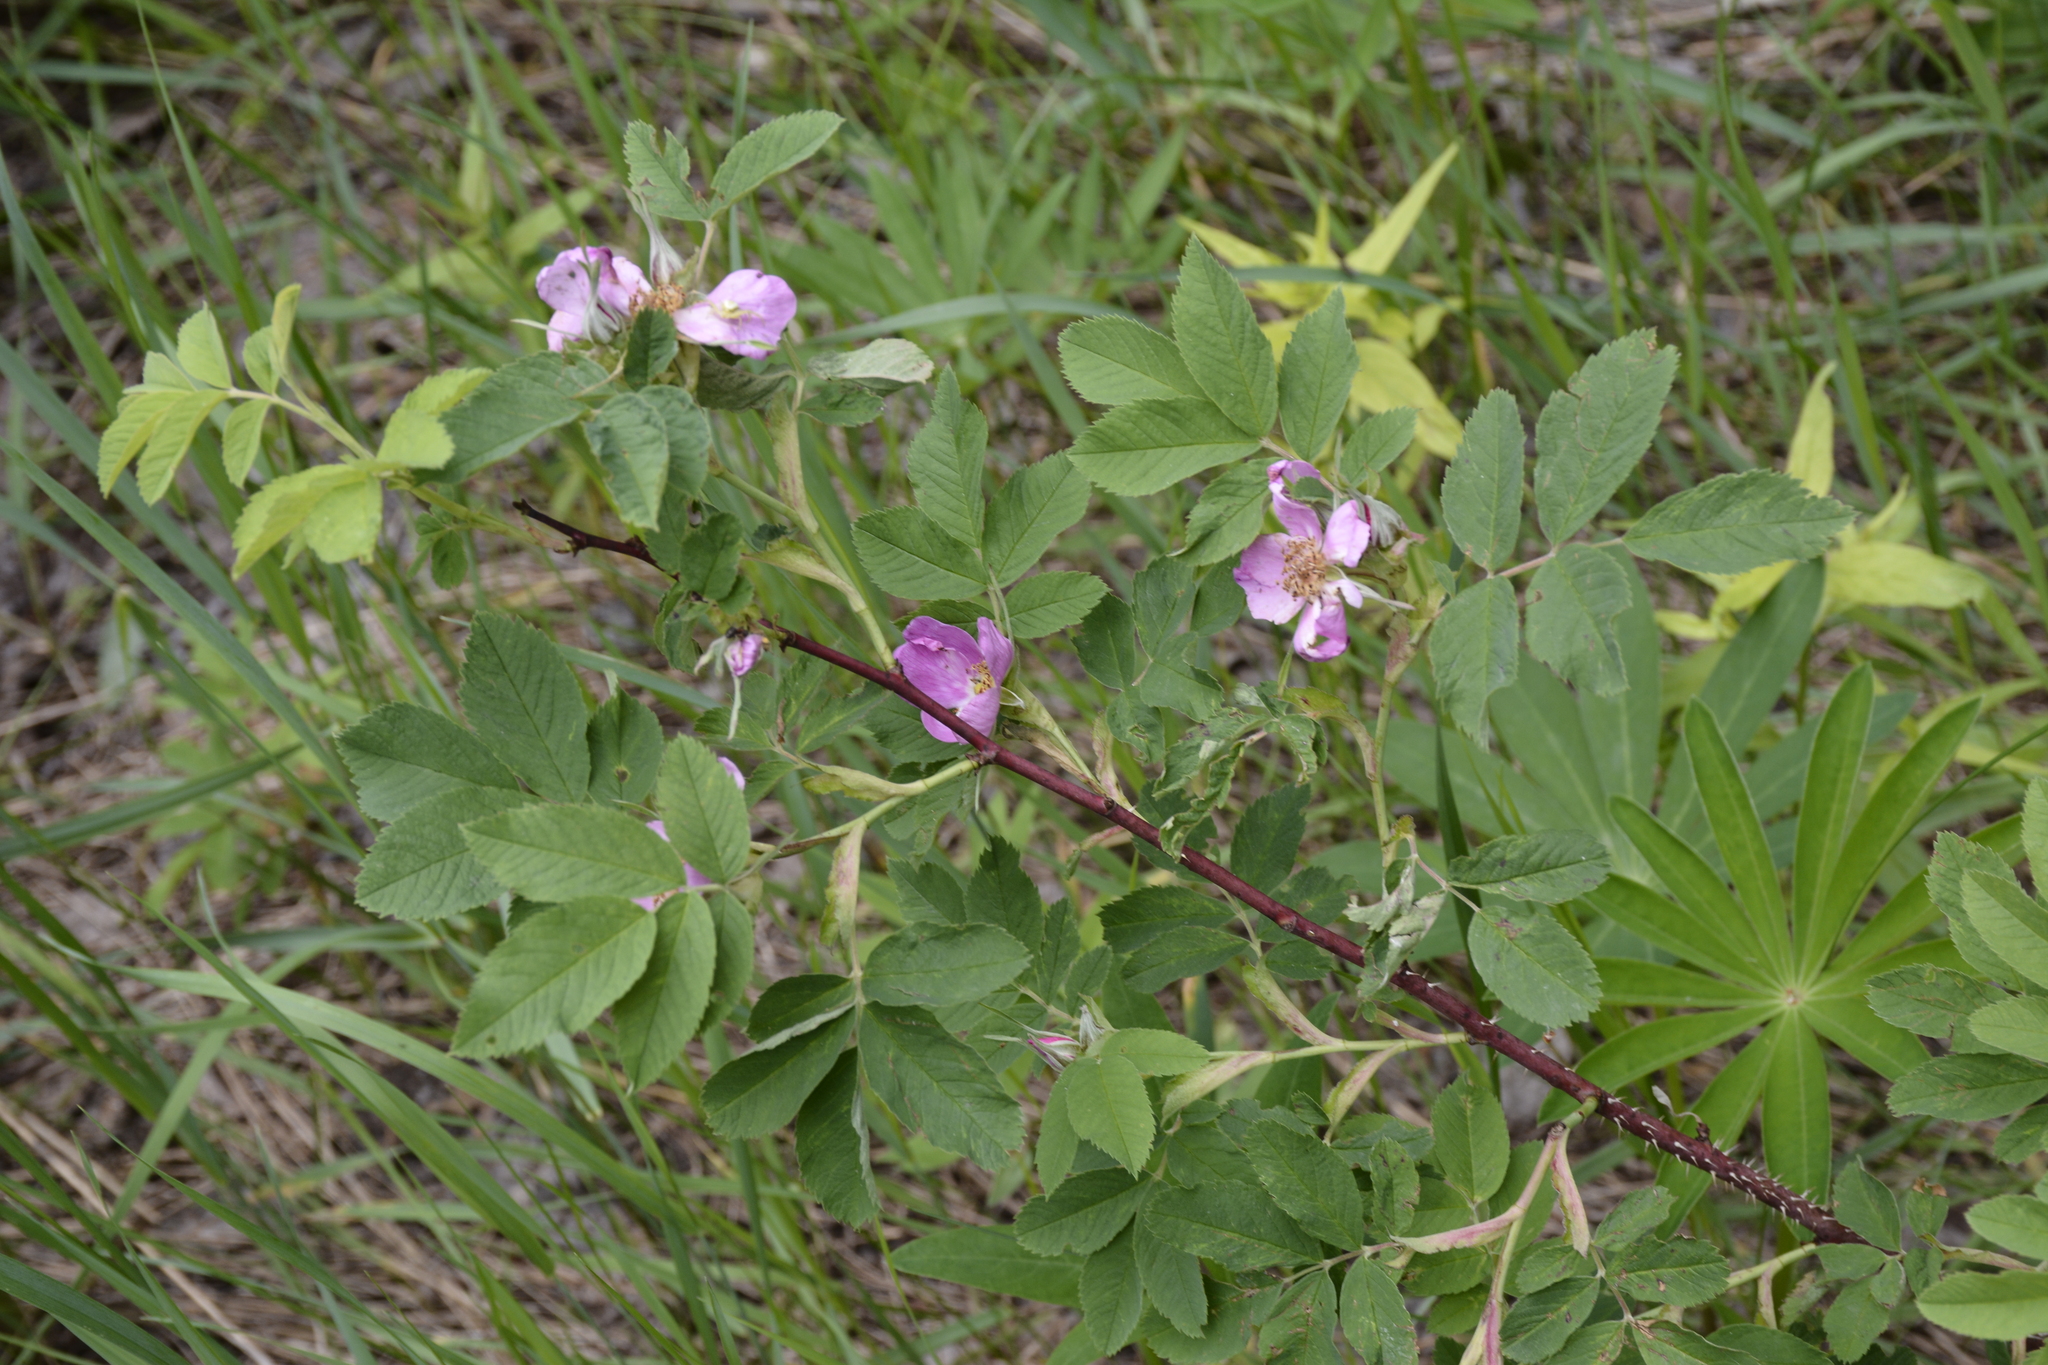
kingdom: Plantae
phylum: Tracheophyta
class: Magnoliopsida
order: Rosales
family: Rosaceae
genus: Rosa
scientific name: Rosa majalis
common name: Cinnamon rose
